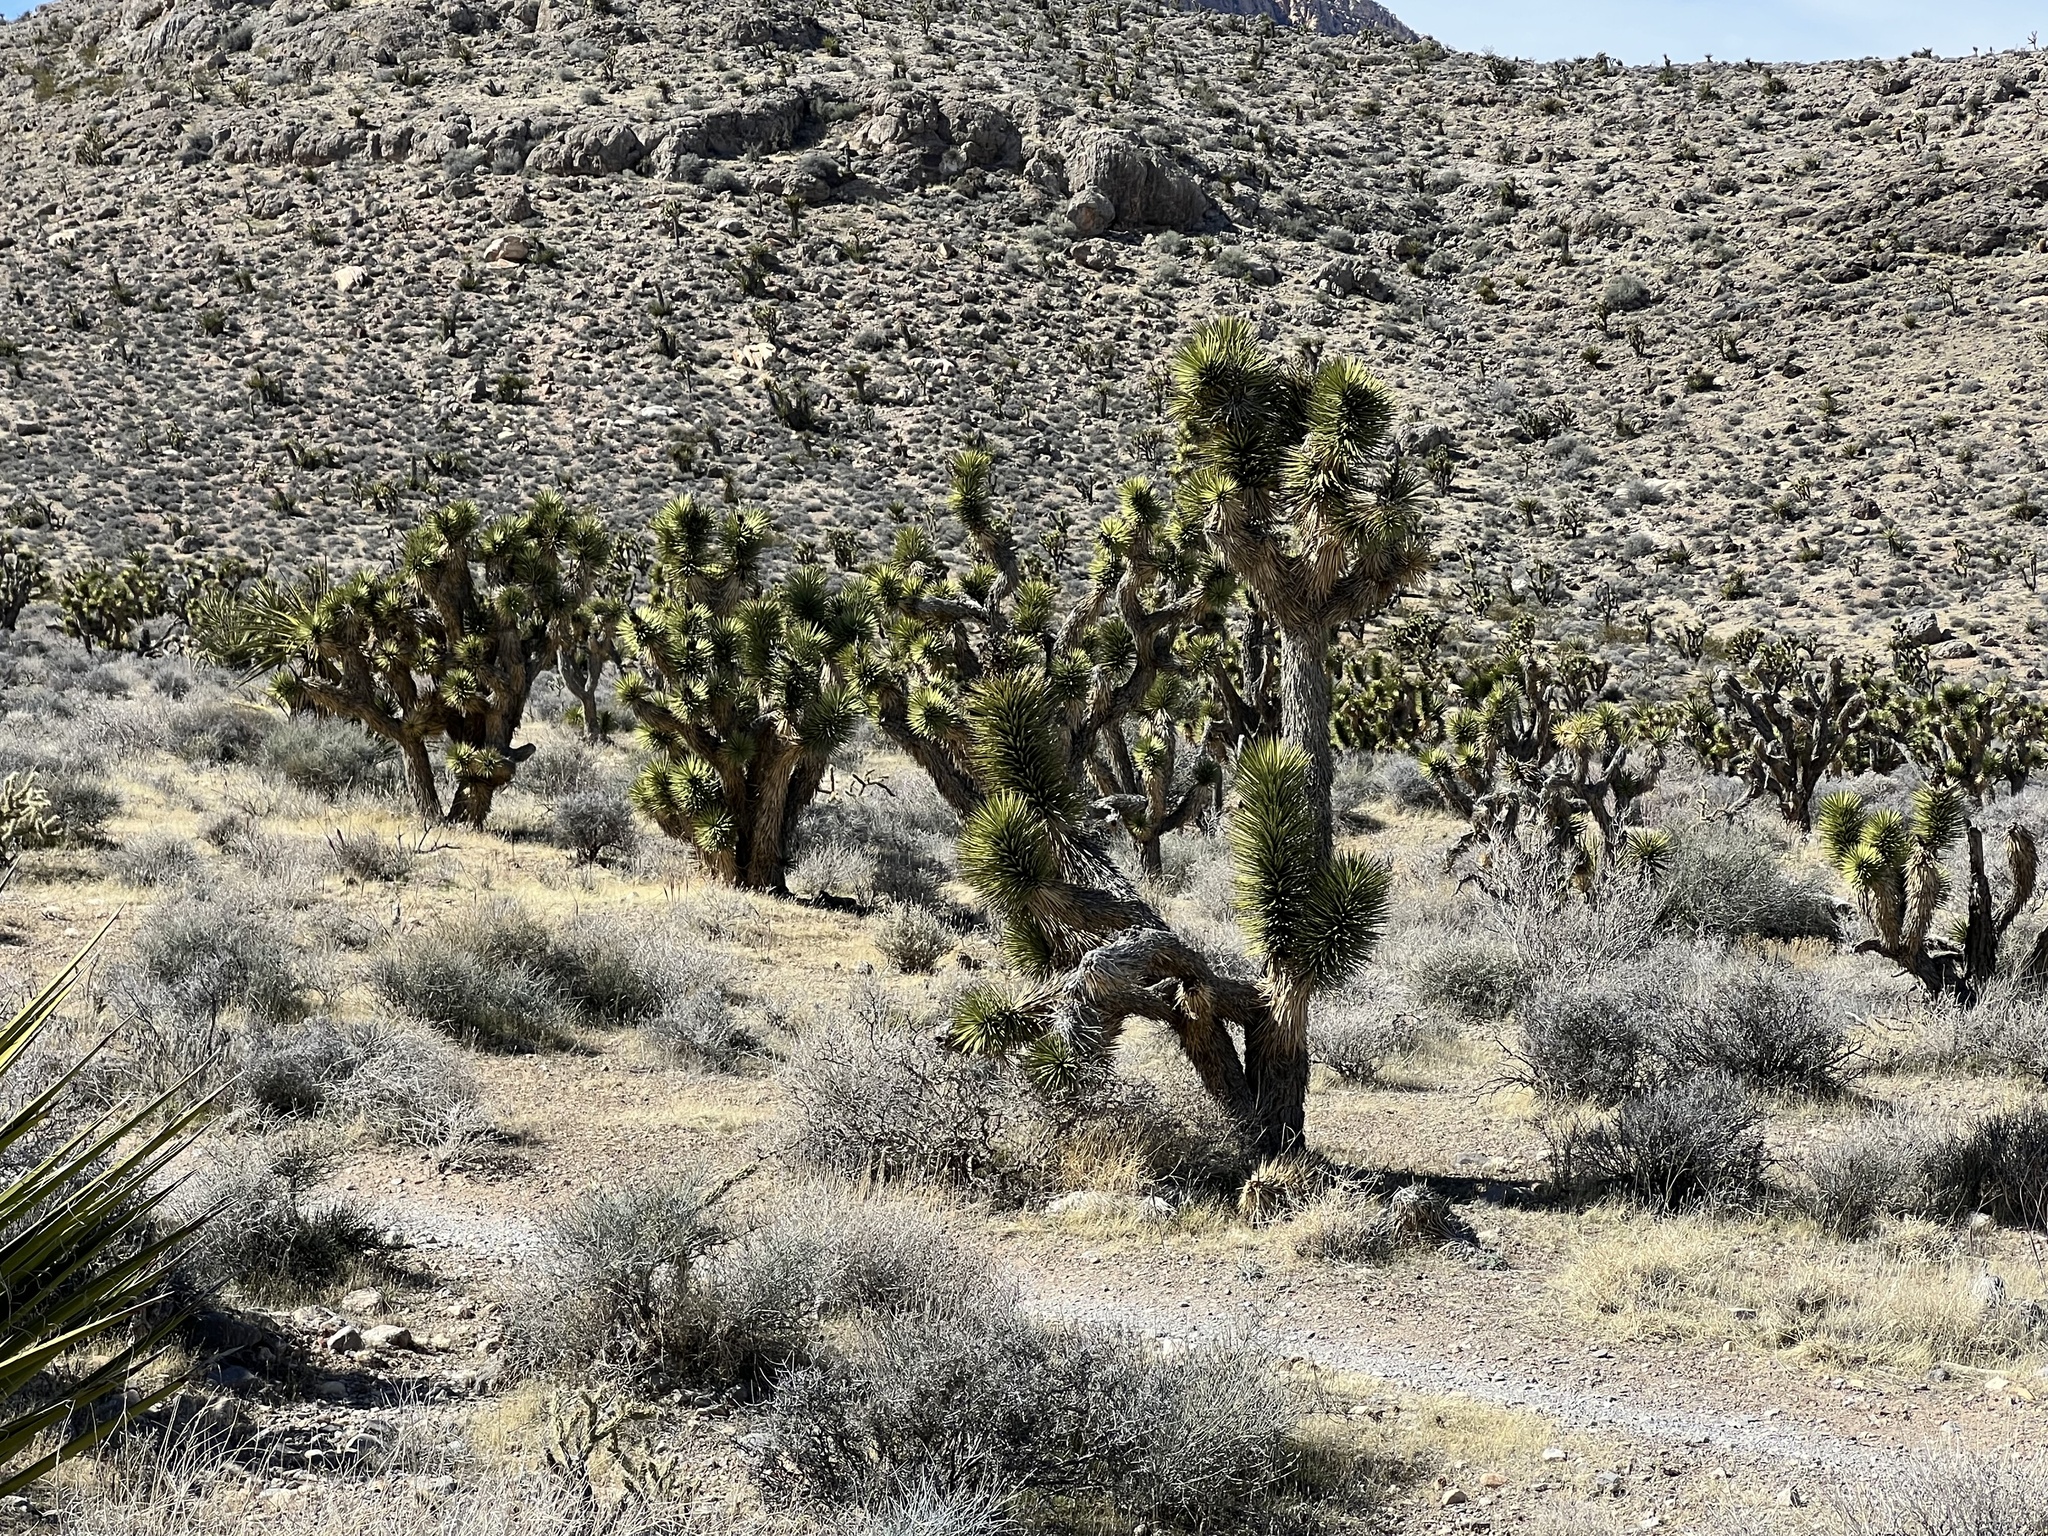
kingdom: Plantae
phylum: Tracheophyta
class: Liliopsida
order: Asparagales
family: Asparagaceae
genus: Yucca
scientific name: Yucca brevifolia
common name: Joshua tree
